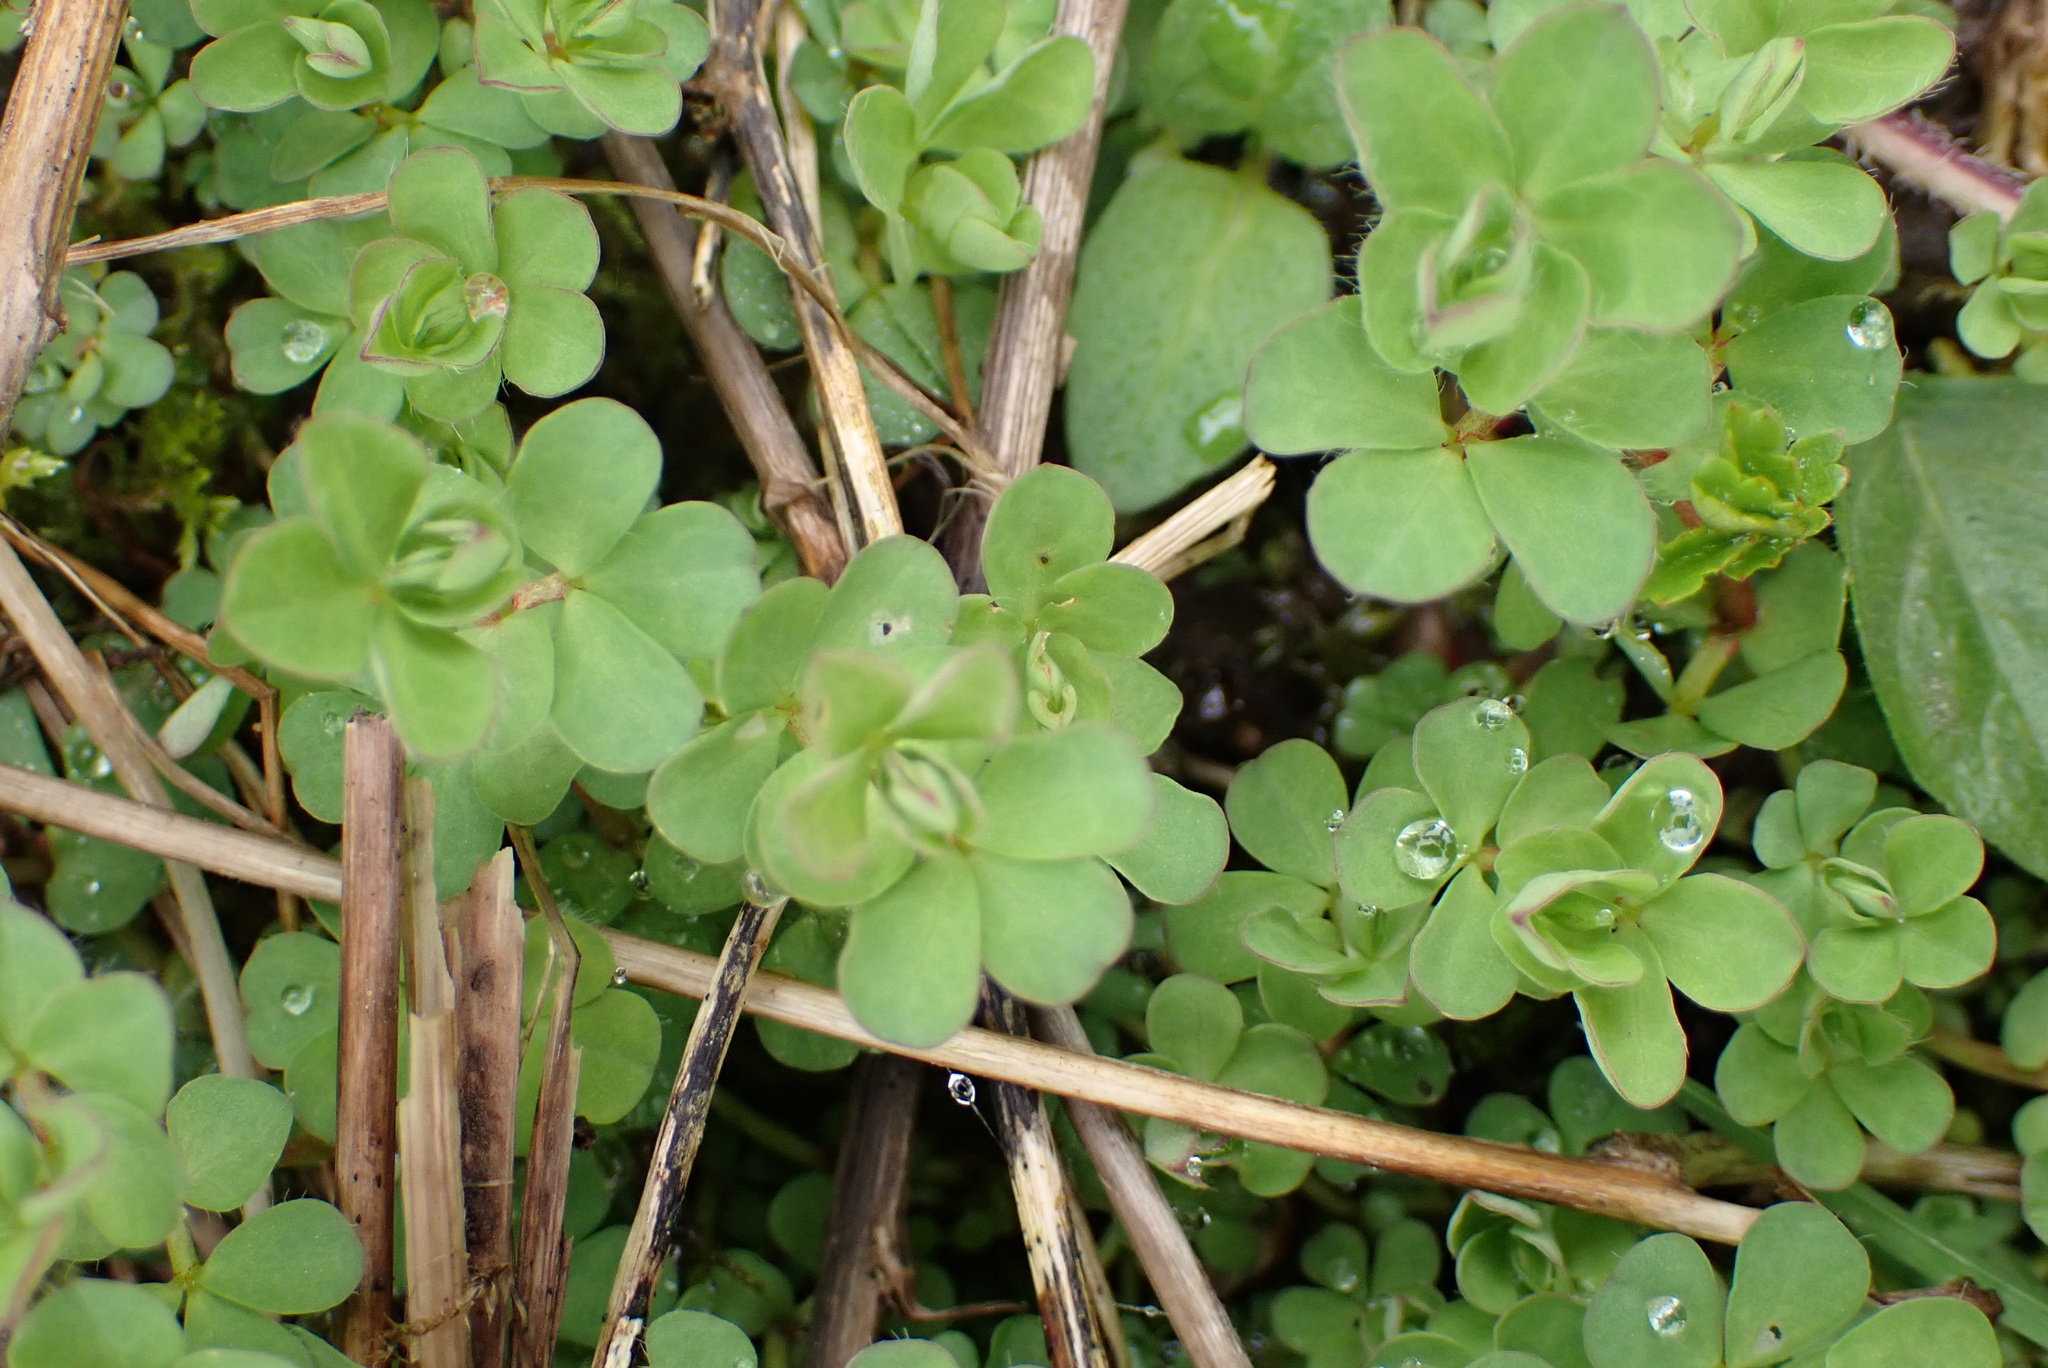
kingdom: Plantae
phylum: Tracheophyta
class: Magnoliopsida
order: Fabales
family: Fabaceae
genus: Lotus
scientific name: Lotus pedunculatus
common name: Greater birdsfoot-trefoil
